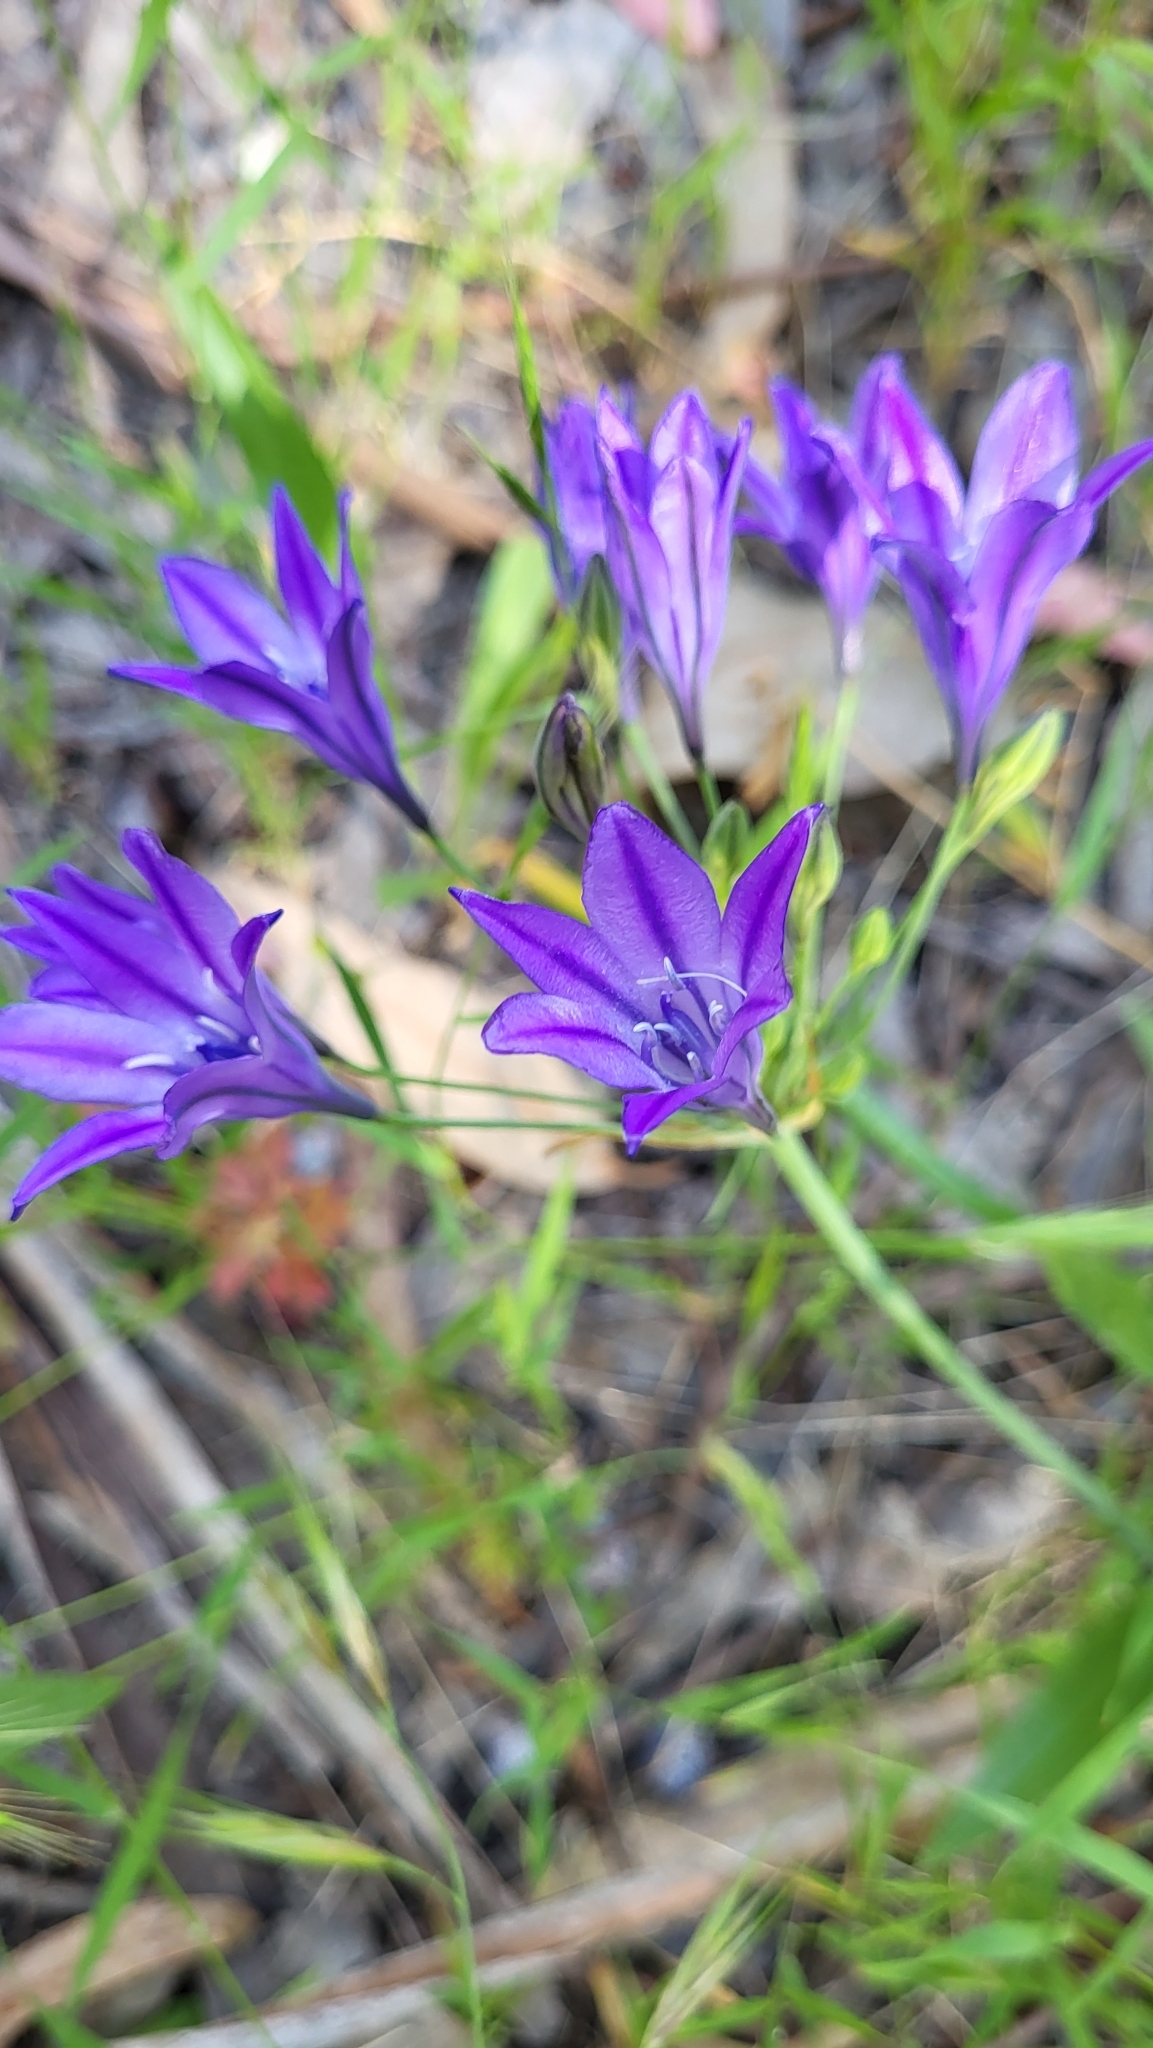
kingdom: Plantae
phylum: Tracheophyta
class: Liliopsida
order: Asparagales
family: Asparagaceae
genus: Triteleia
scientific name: Triteleia laxa
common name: Triplet-lily
